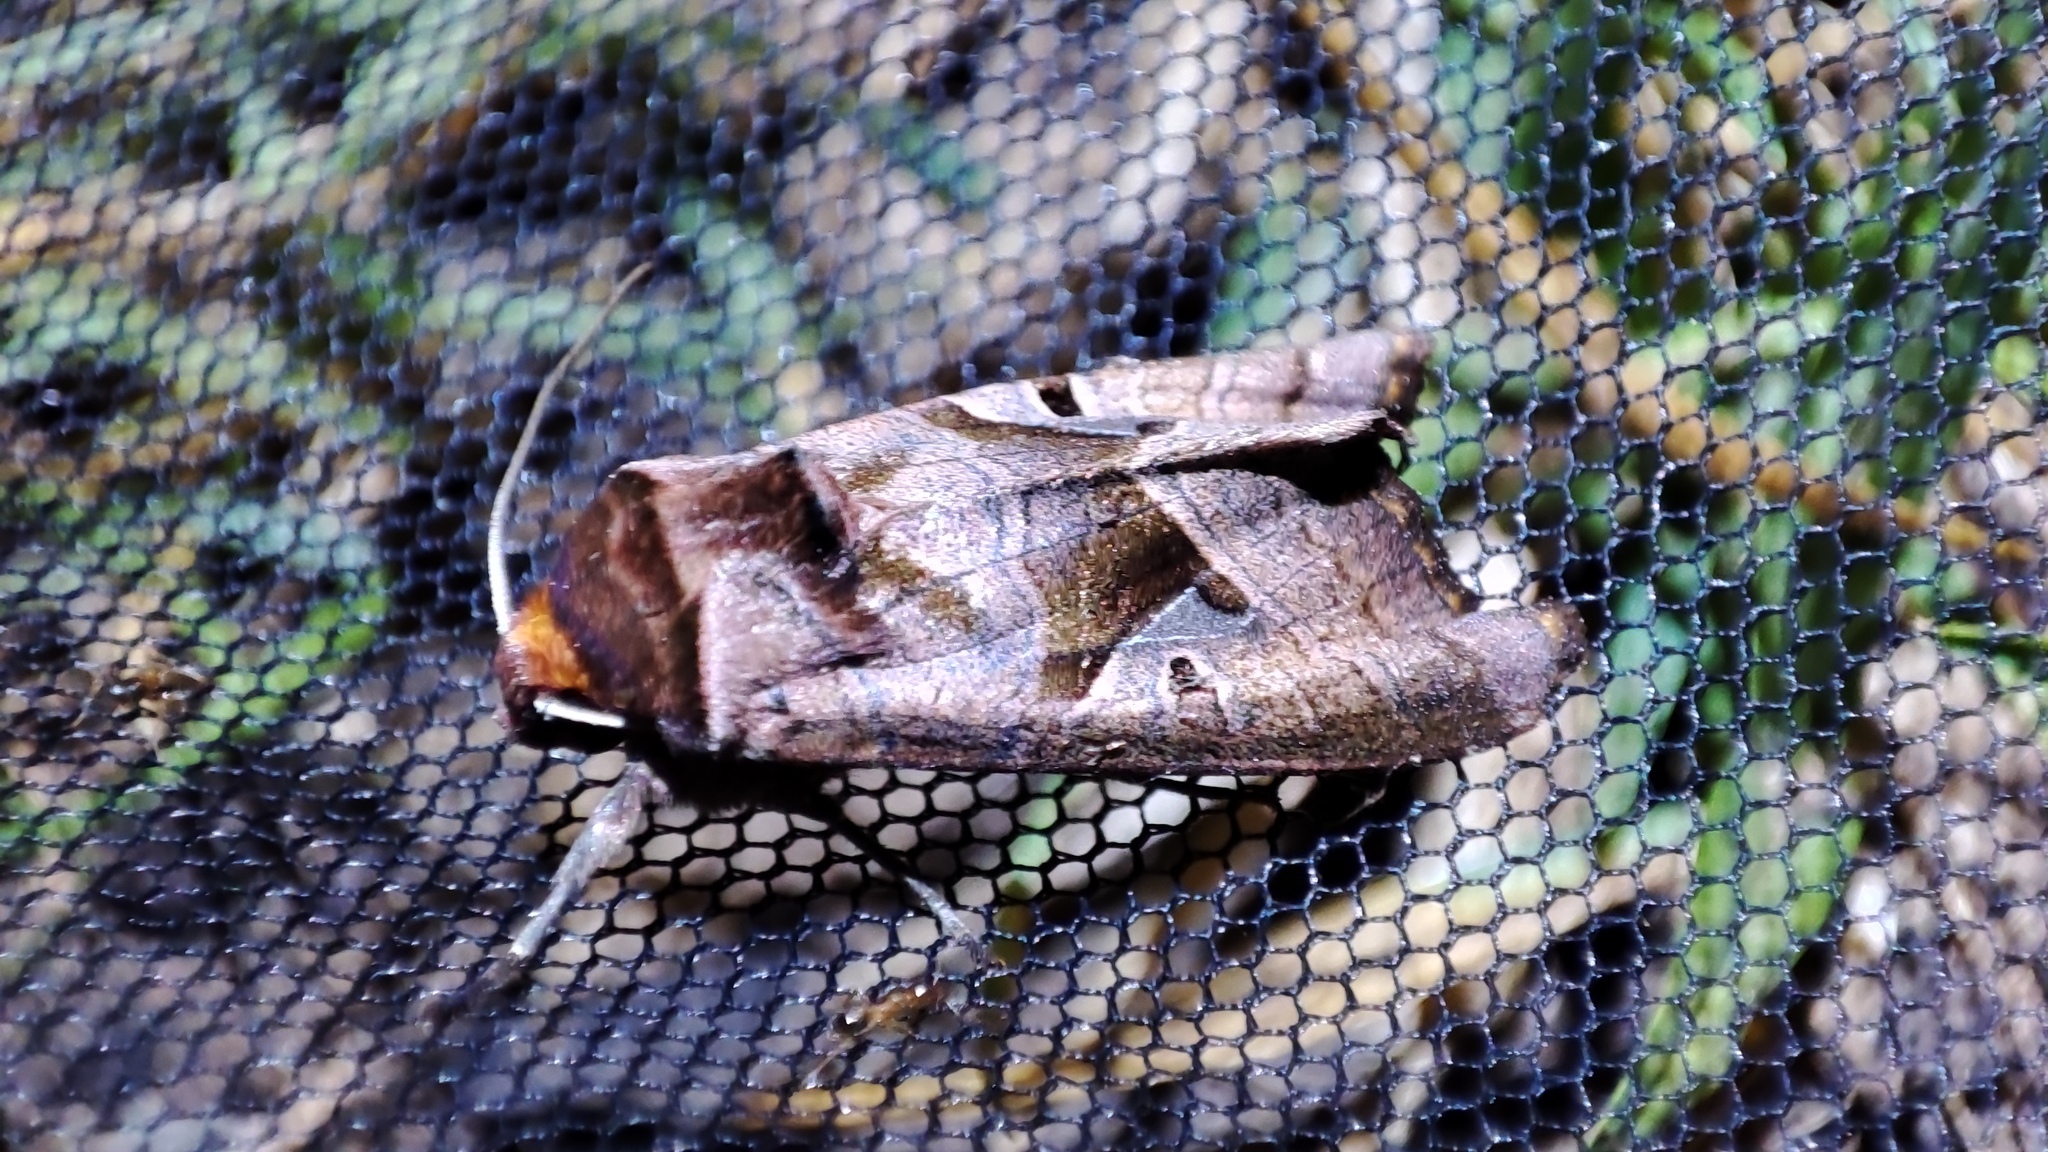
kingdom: Animalia
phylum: Arthropoda
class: Insecta
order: Lepidoptera
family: Noctuidae
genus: Conservula
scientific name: Conservula cinisigna
